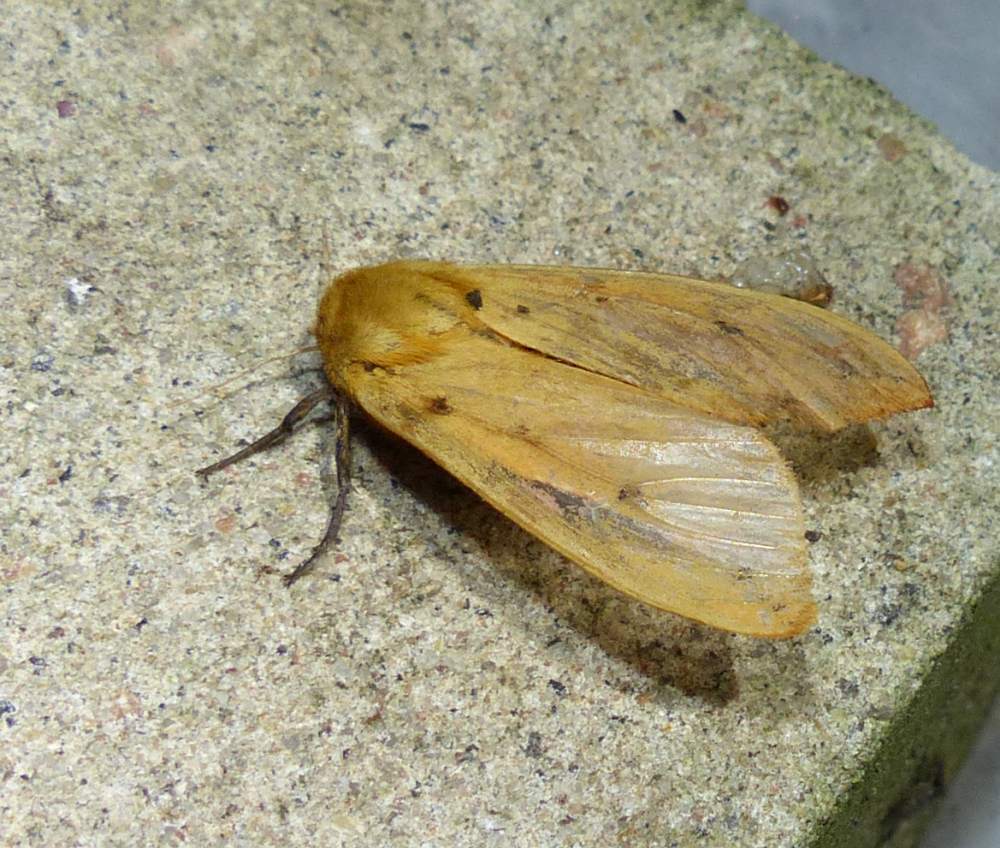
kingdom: Animalia
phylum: Arthropoda
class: Insecta
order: Lepidoptera
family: Erebidae
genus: Pyrrharctia
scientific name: Pyrrharctia isabella
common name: Isabella tiger moth
